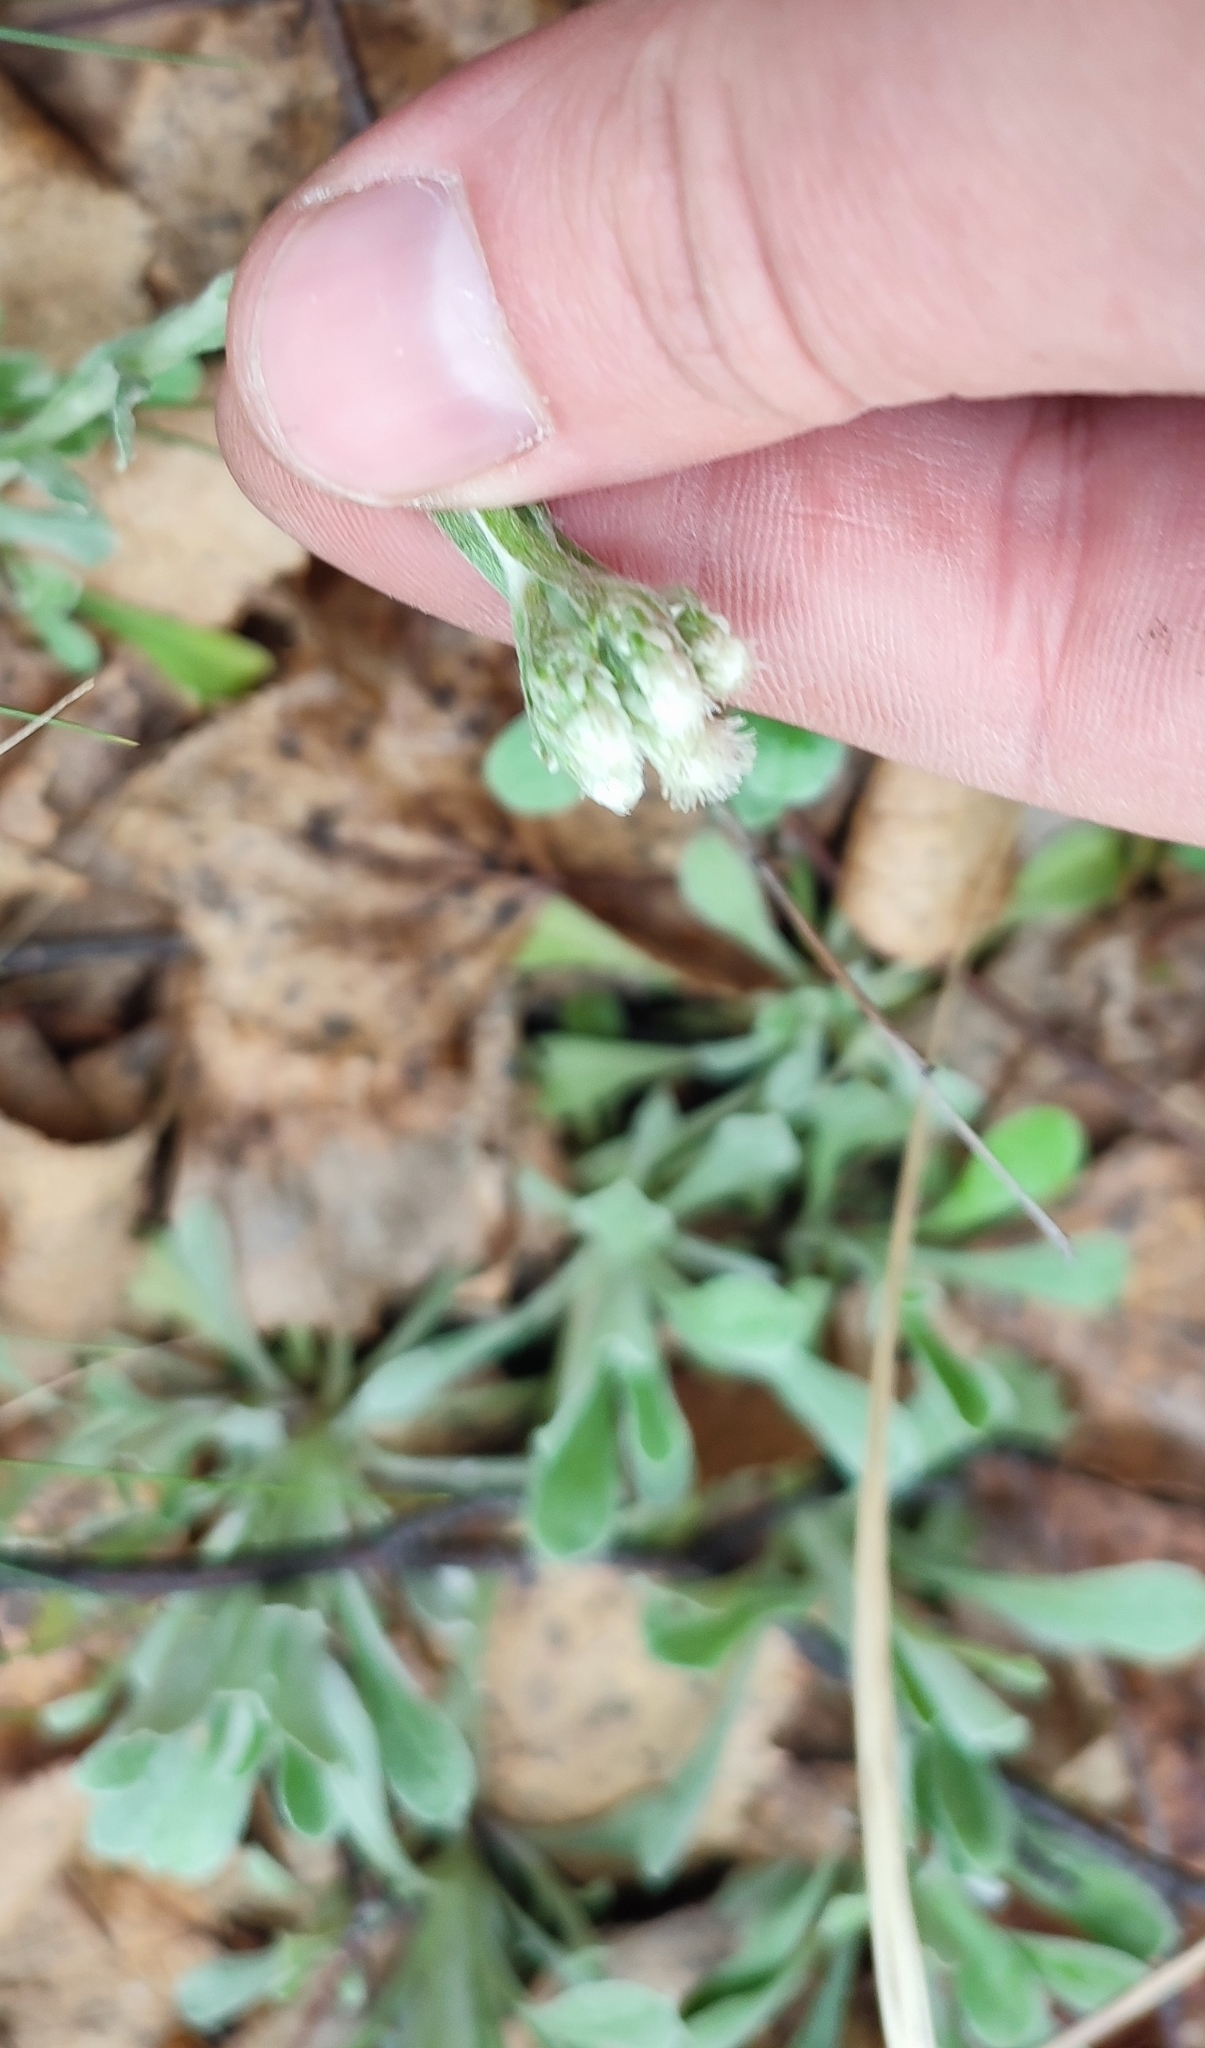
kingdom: Plantae
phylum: Tracheophyta
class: Magnoliopsida
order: Asterales
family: Asteraceae
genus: Antennaria
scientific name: Antennaria dioica
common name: Mountain everlasting
